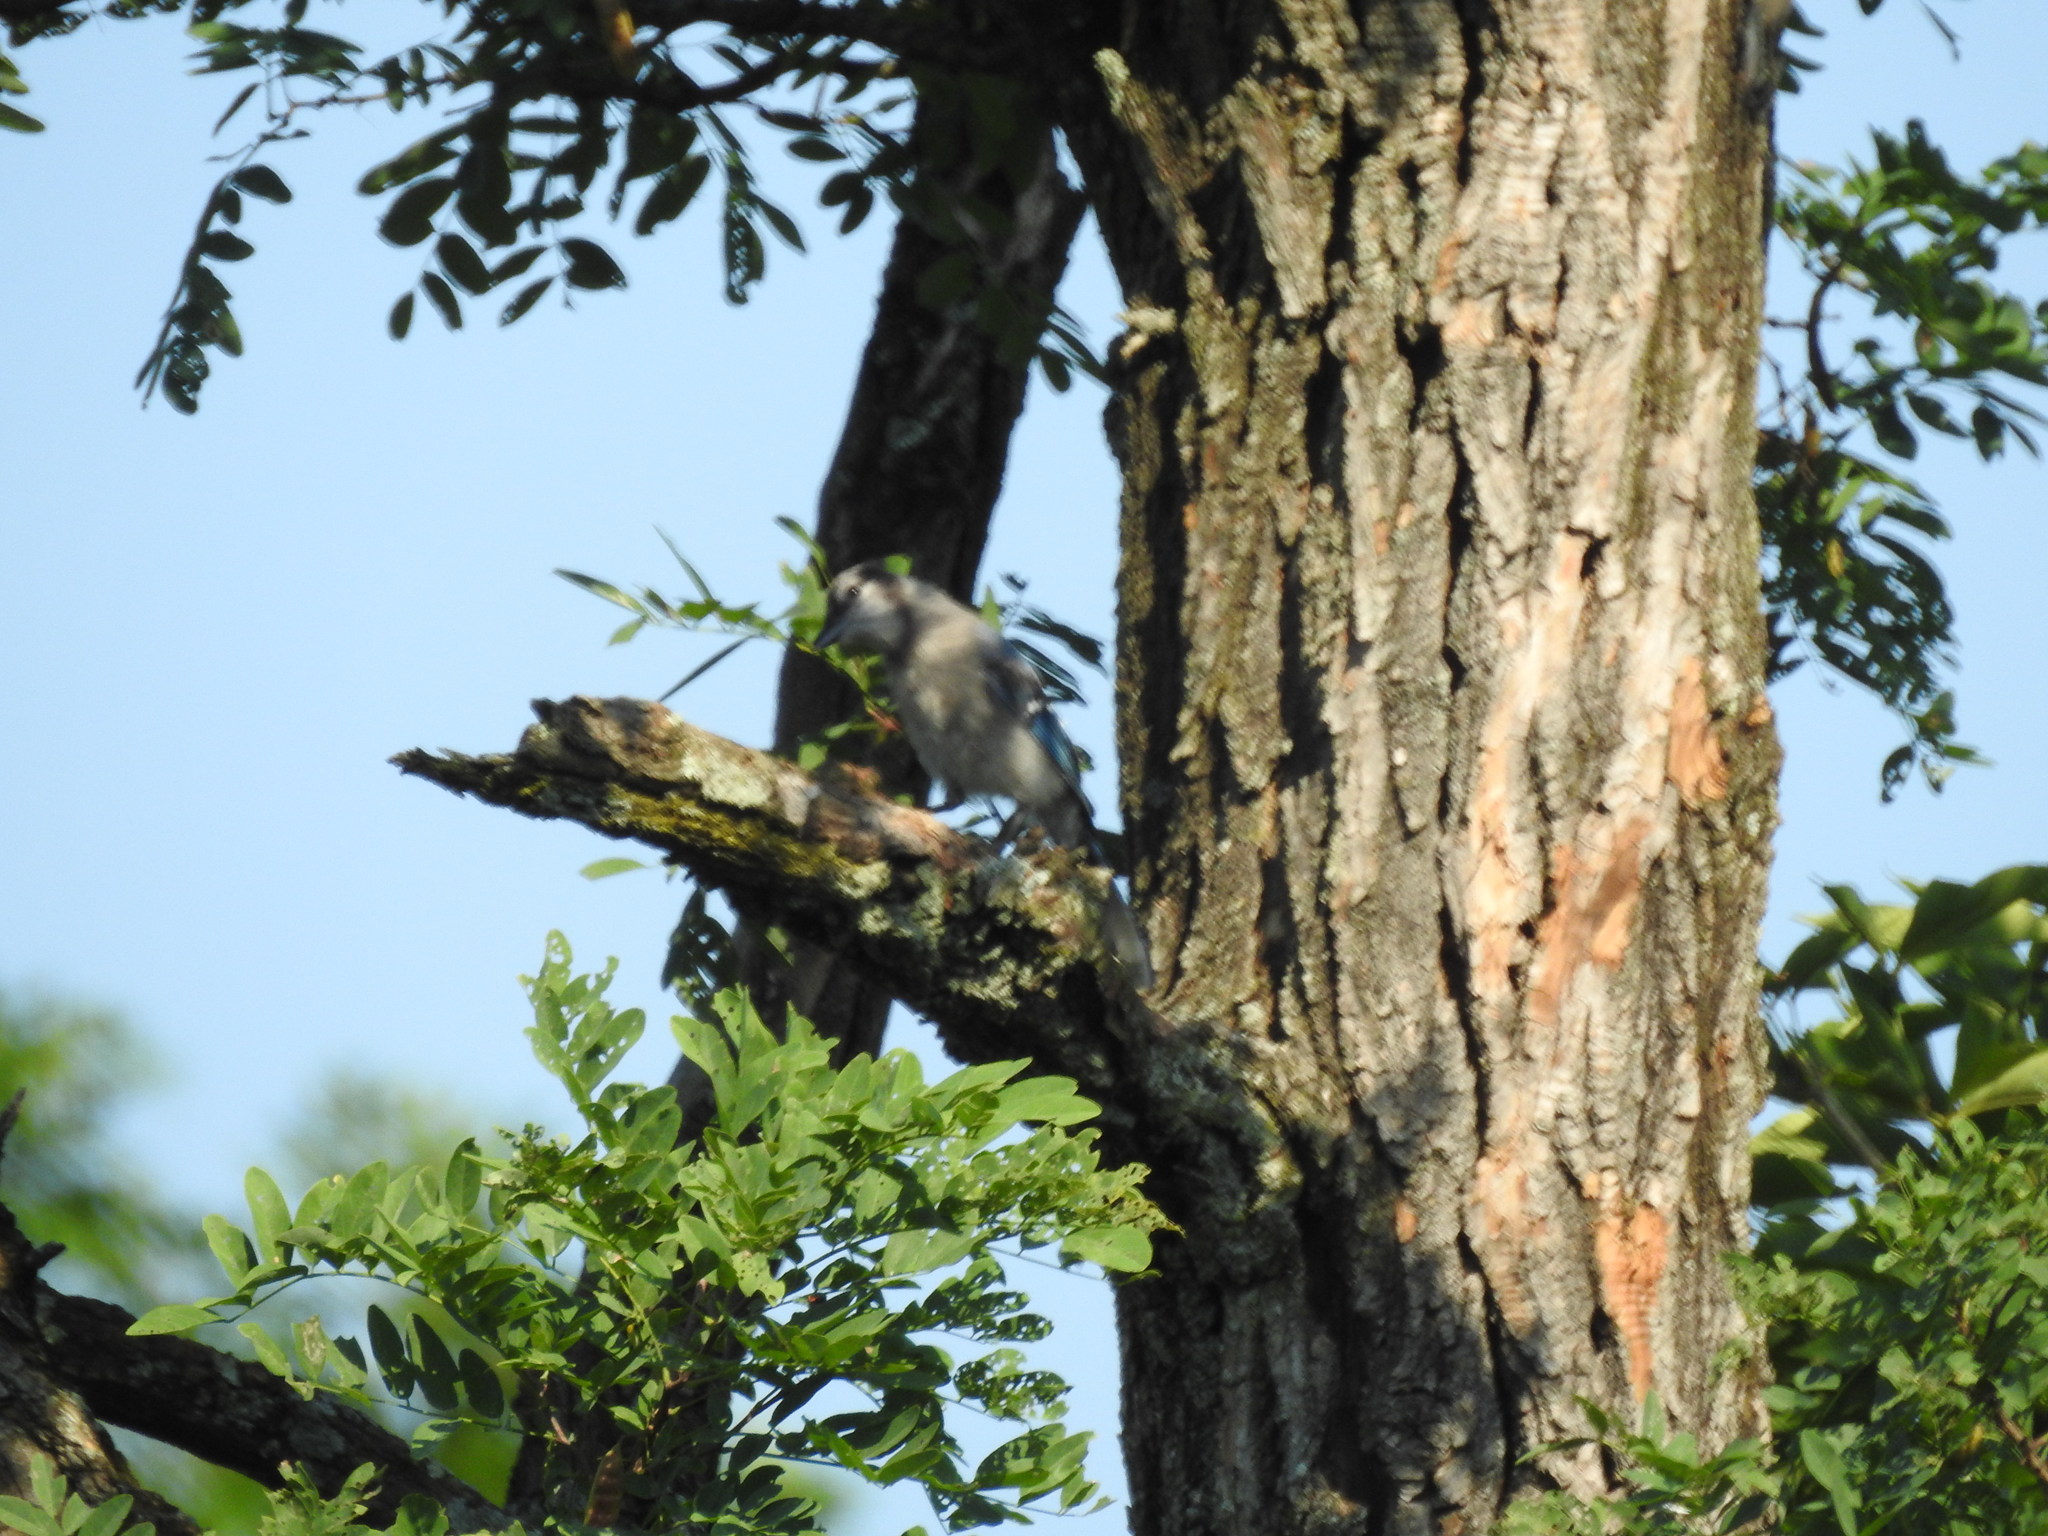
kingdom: Animalia
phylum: Chordata
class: Aves
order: Passeriformes
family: Corvidae
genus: Cyanocitta
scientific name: Cyanocitta cristata
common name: Blue jay
